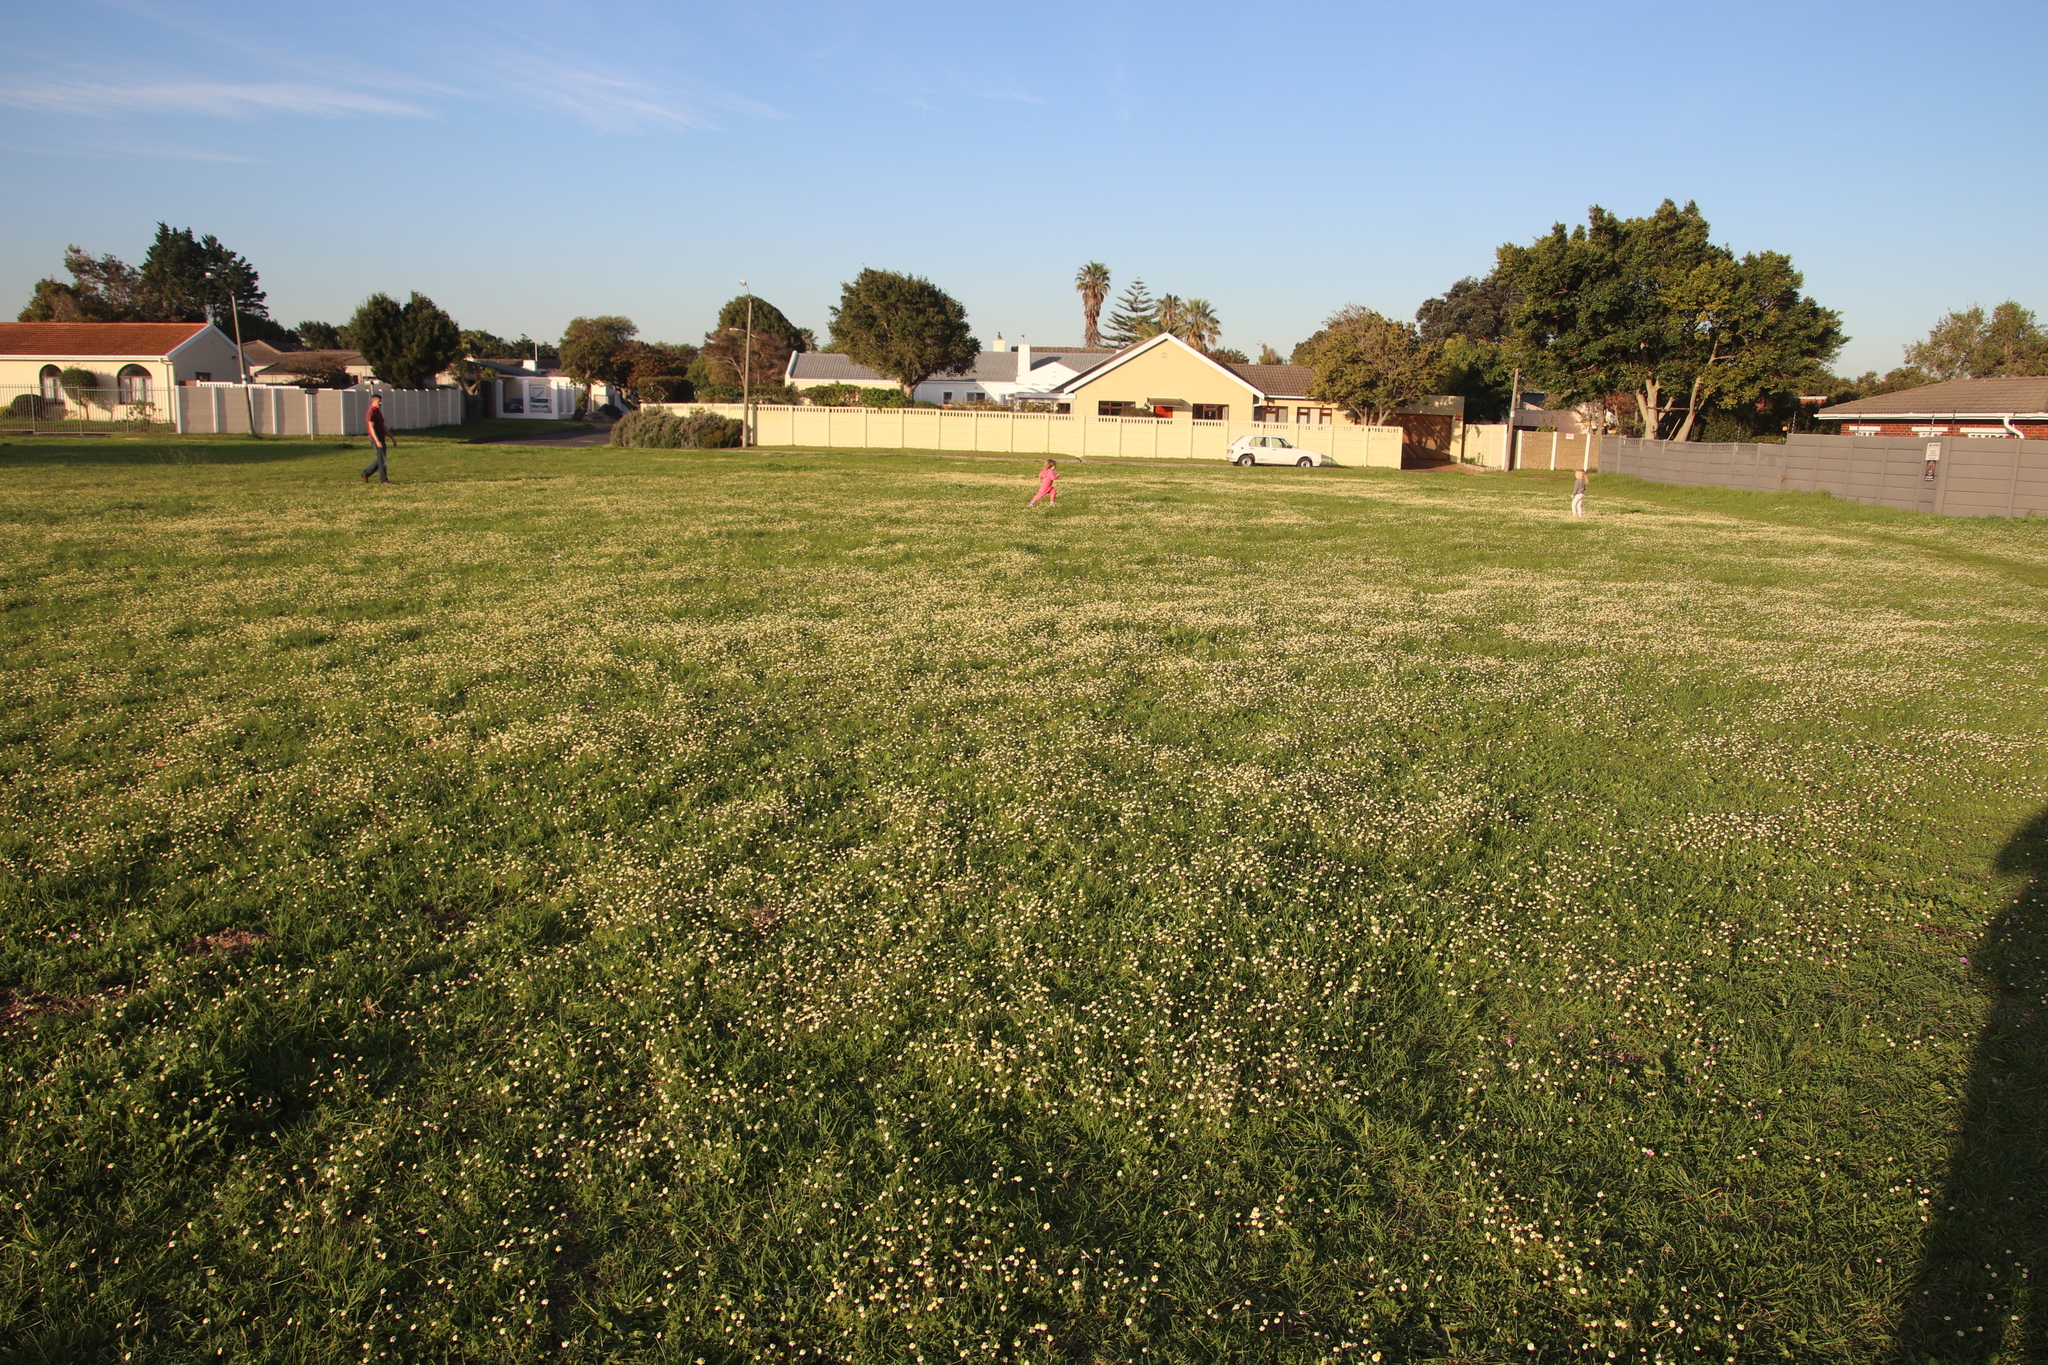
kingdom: Plantae
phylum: Tracheophyta
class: Magnoliopsida
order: Asterales
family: Asteraceae
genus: Cotula
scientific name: Cotula turbinata
